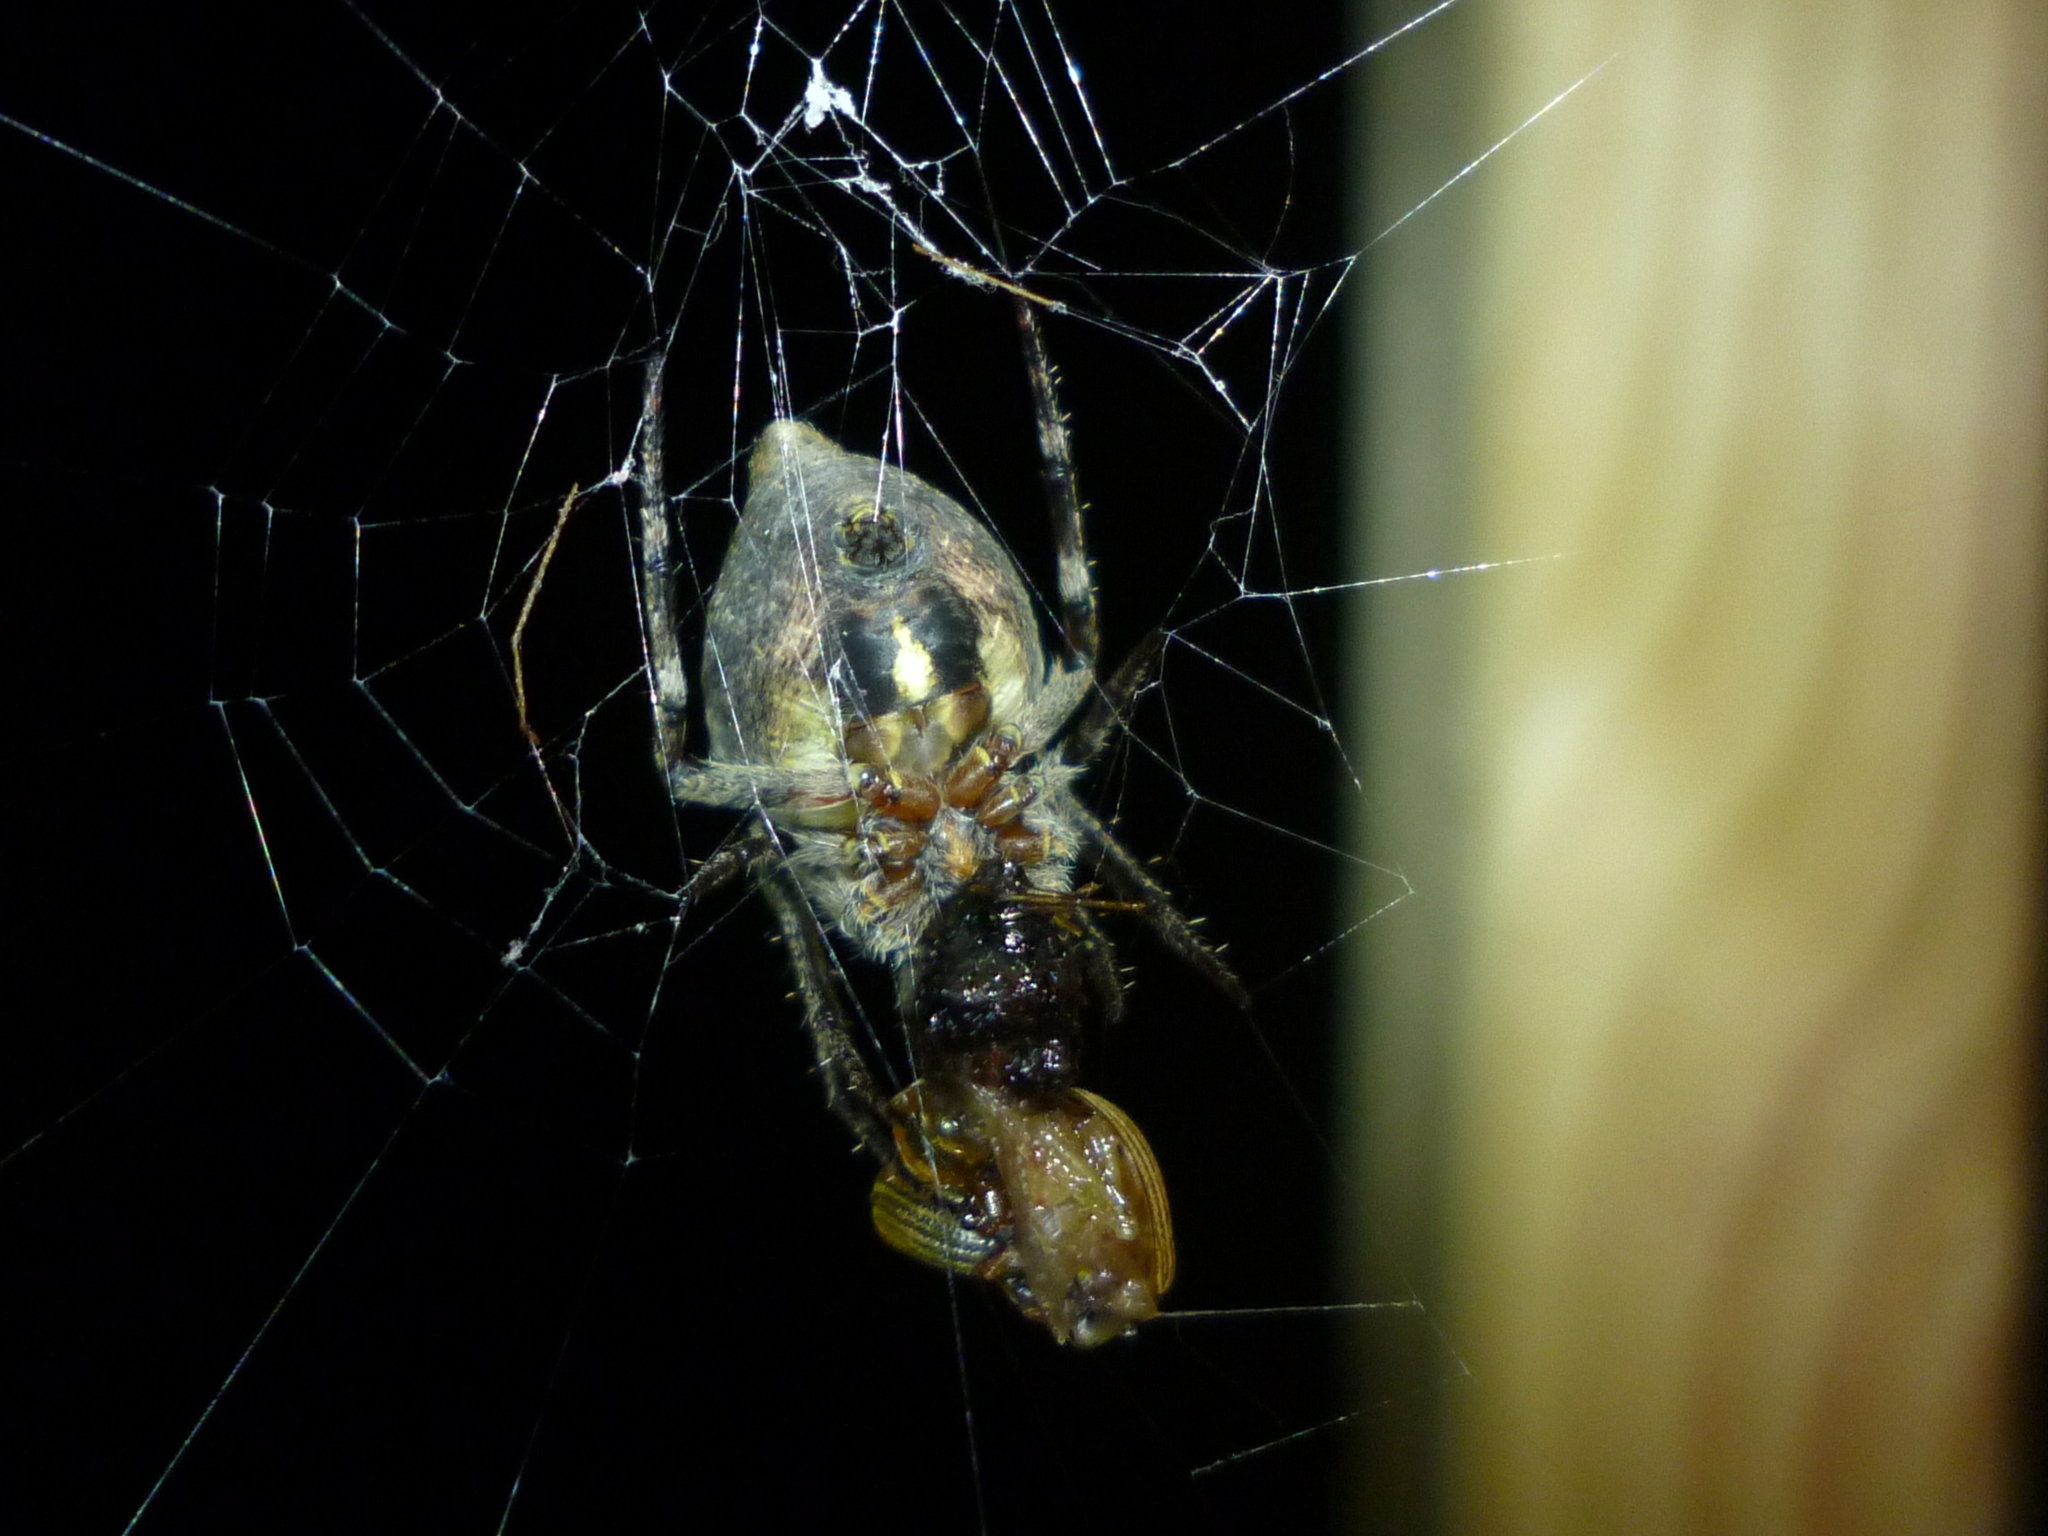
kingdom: Animalia
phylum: Arthropoda
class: Arachnida
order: Araneae
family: Araneidae
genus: Eustala
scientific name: Eustala anastera
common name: Orb weavers
